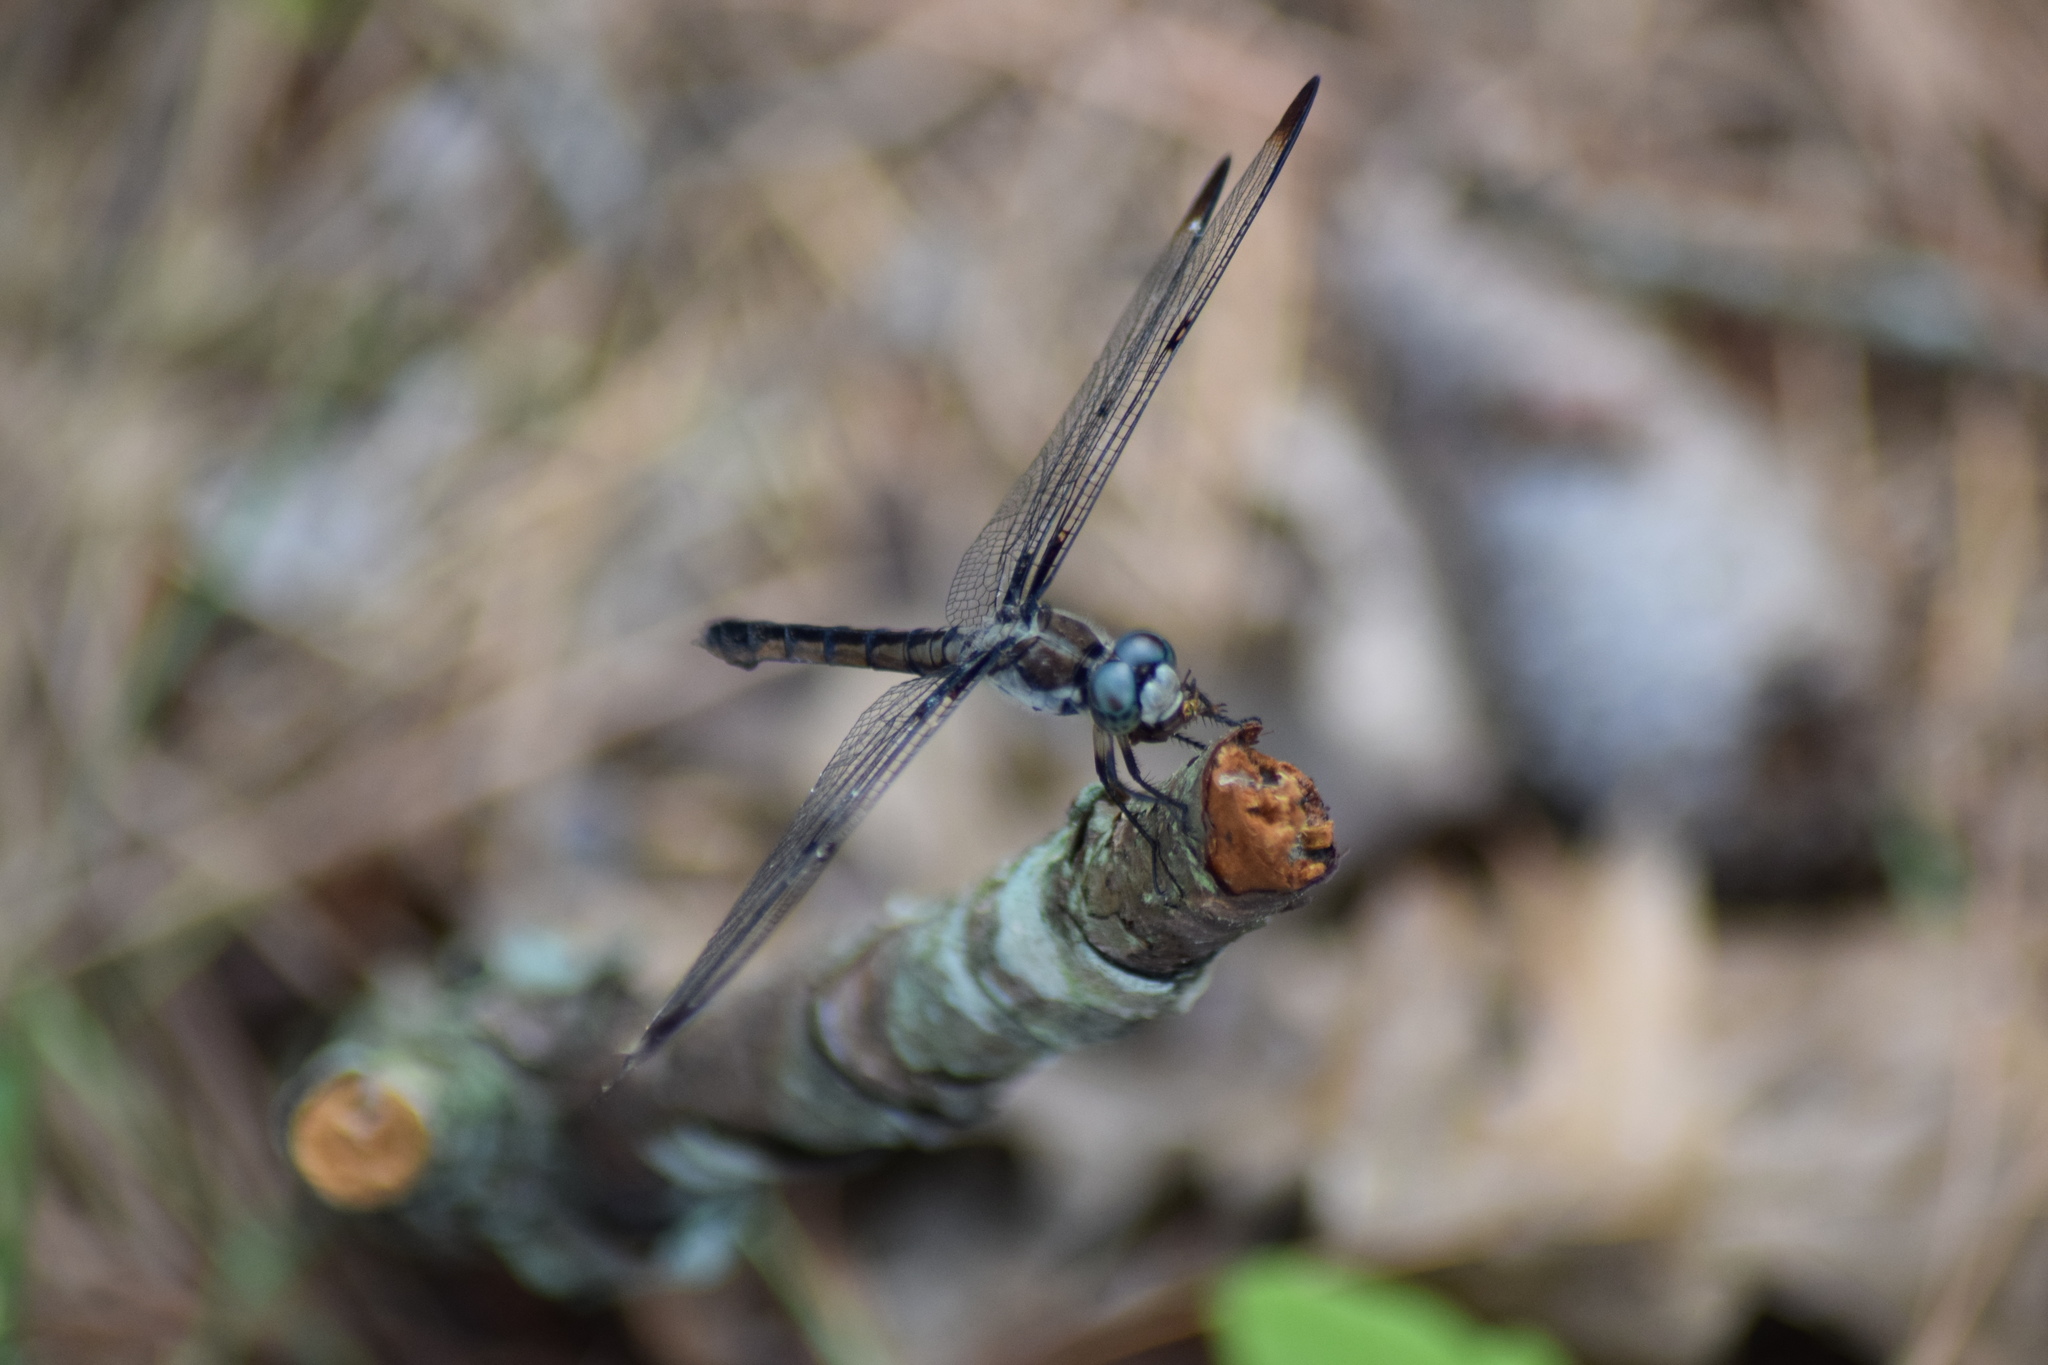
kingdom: Animalia
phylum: Arthropoda
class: Insecta
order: Odonata
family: Libellulidae
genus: Libellula
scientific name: Libellula vibrans
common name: Great blue skimmer
